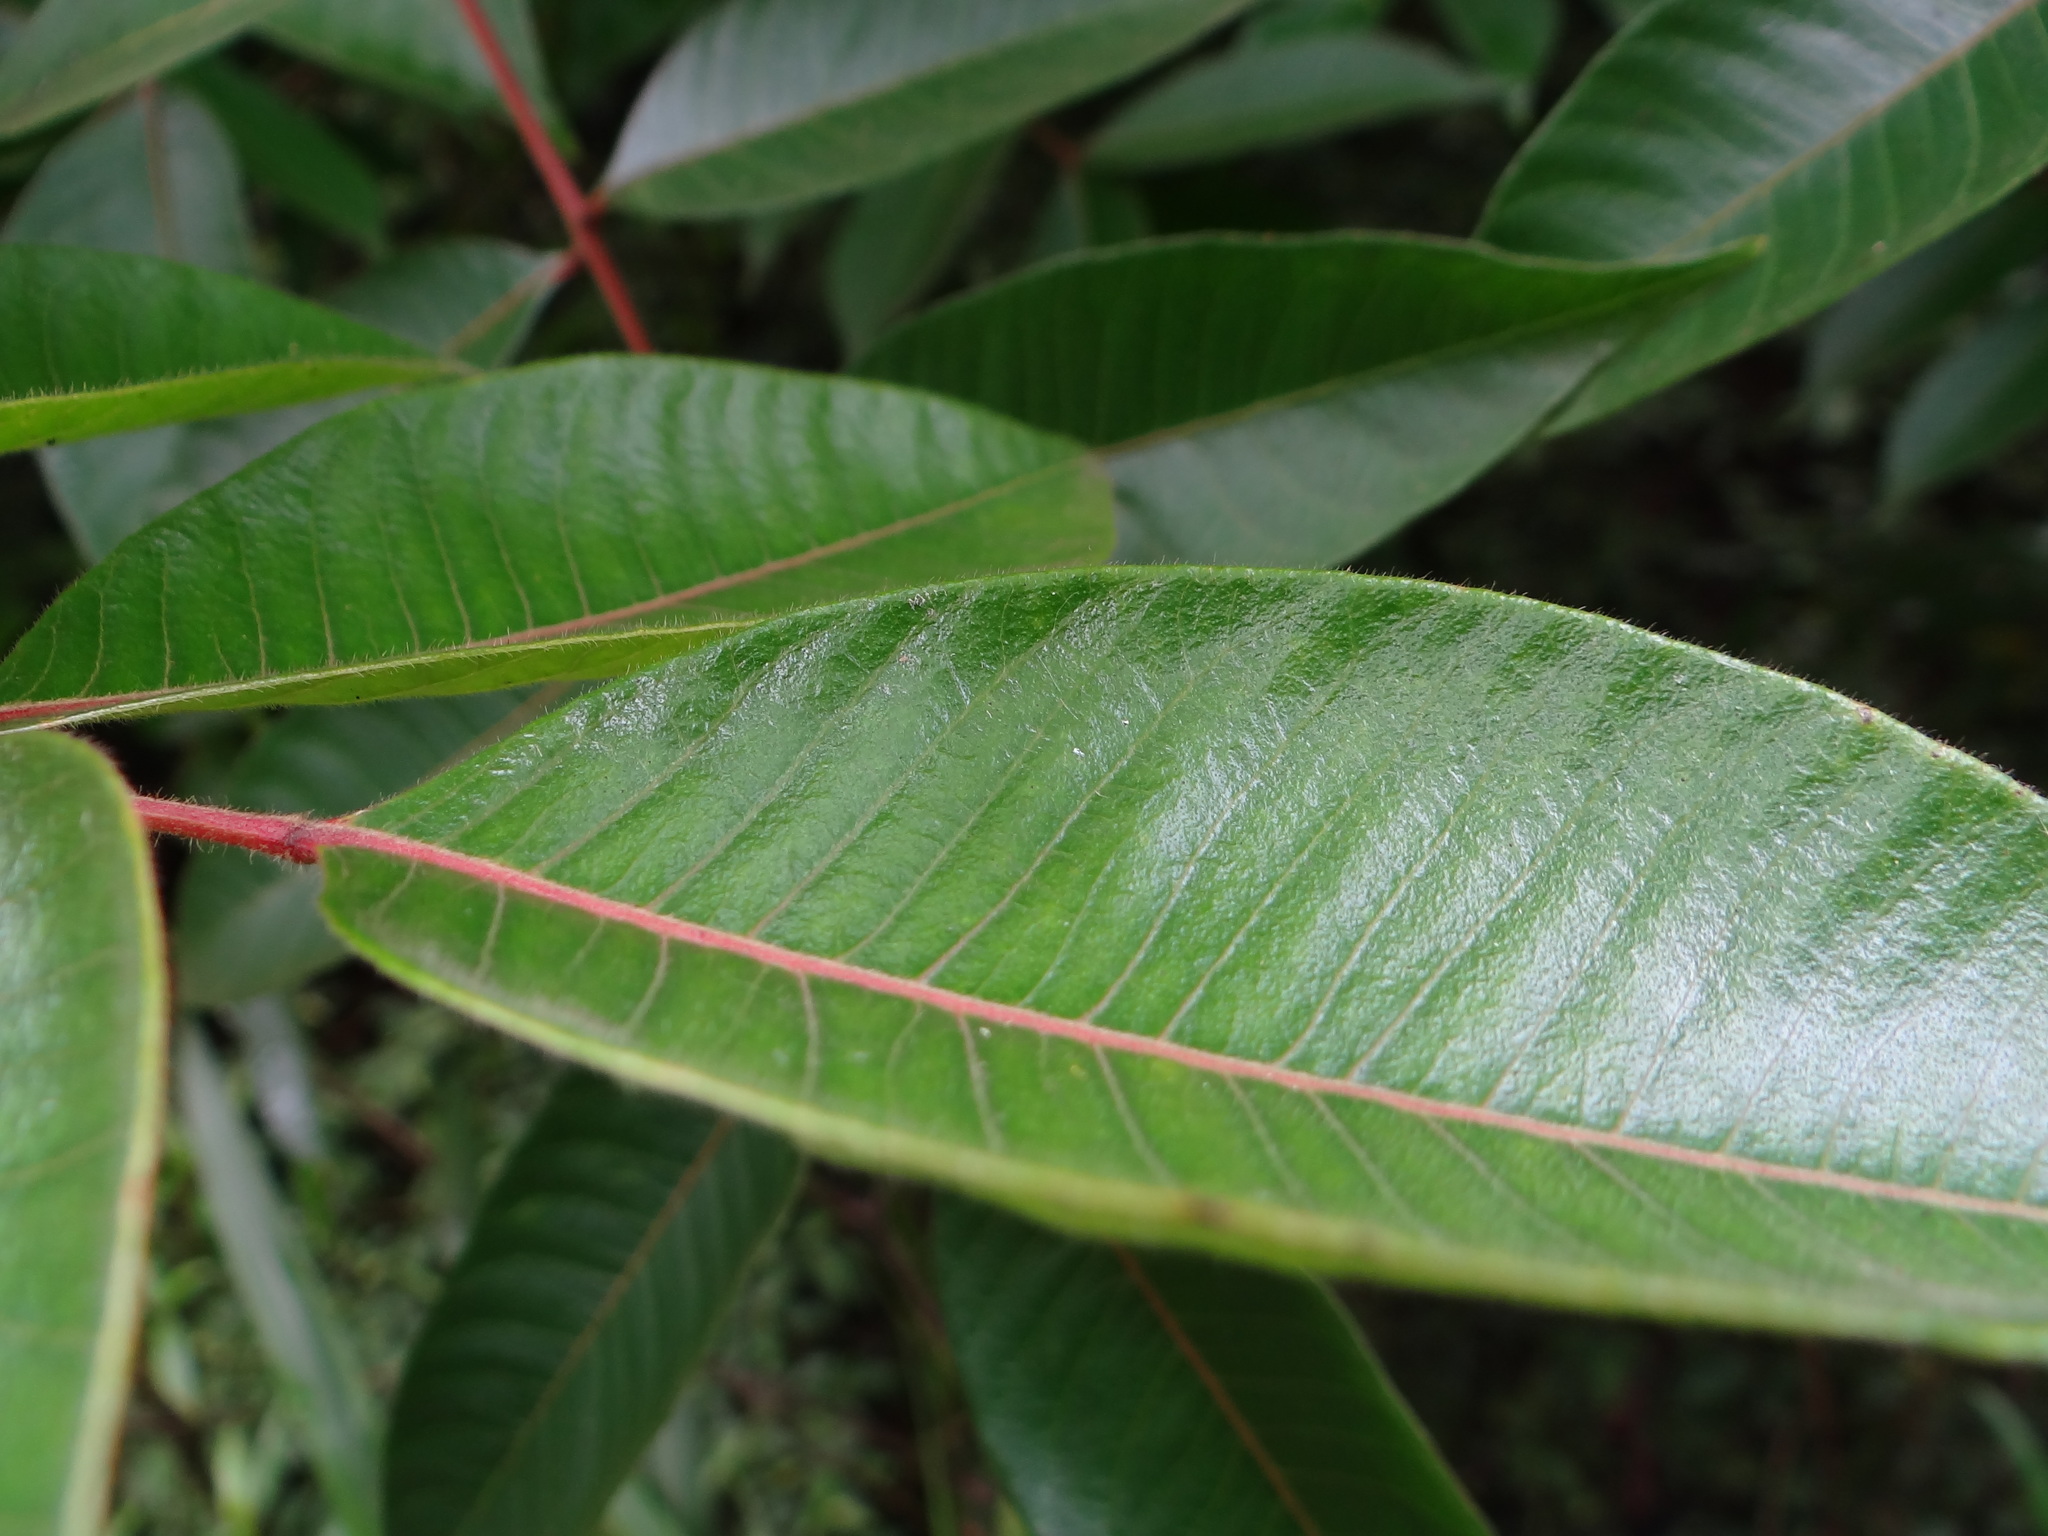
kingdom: Plantae
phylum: Tracheophyta
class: Magnoliopsida
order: Sapindales
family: Anacardiaceae
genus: Toxicodendron
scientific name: Toxicodendron sylvestre
